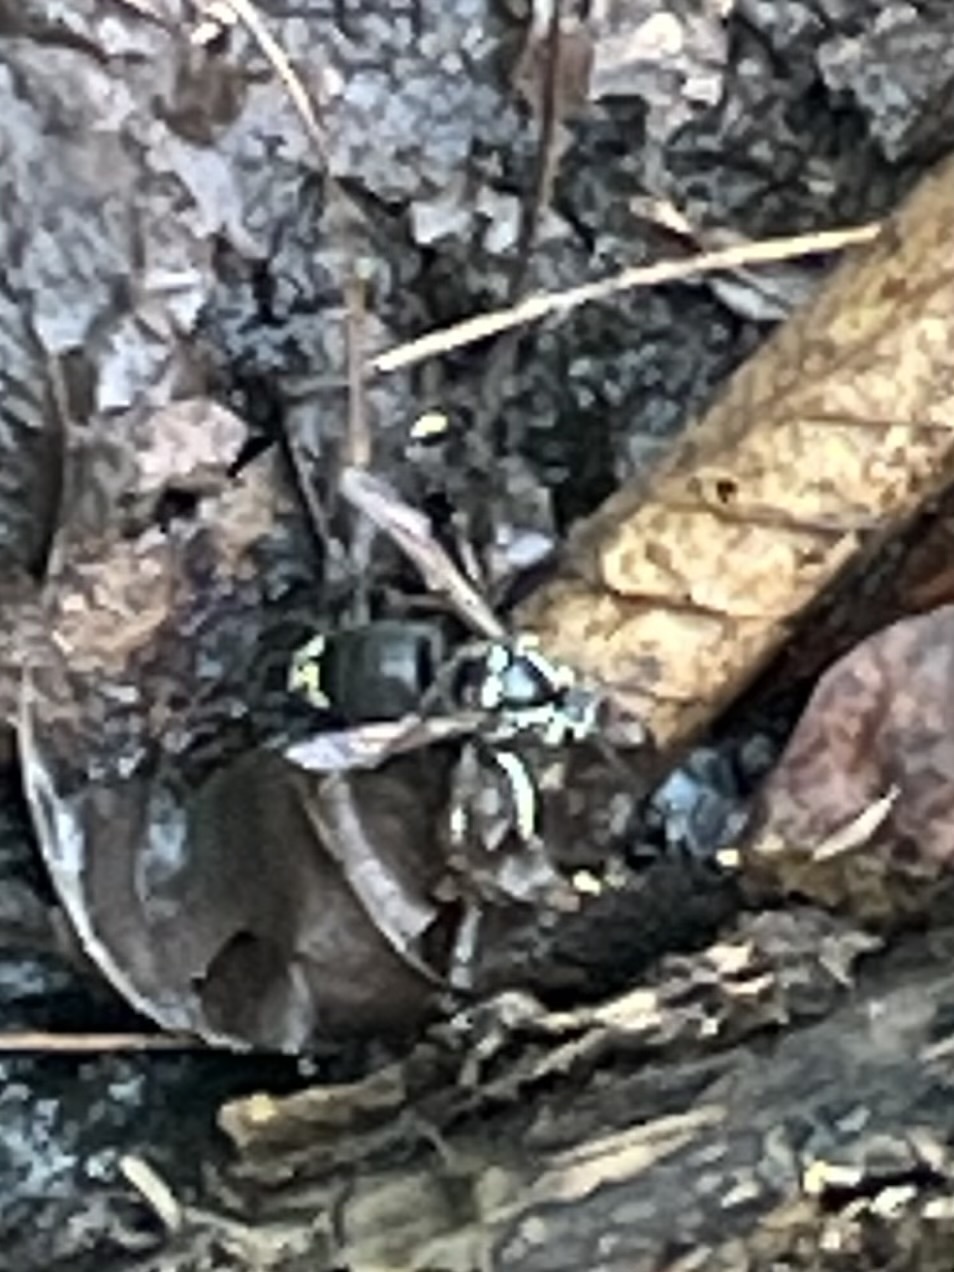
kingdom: Animalia
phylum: Arthropoda
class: Insecta
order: Hymenoptera
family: Vespidae
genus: Dolichovespula
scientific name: Dolichovespula maculata
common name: Bald-faced hornet
